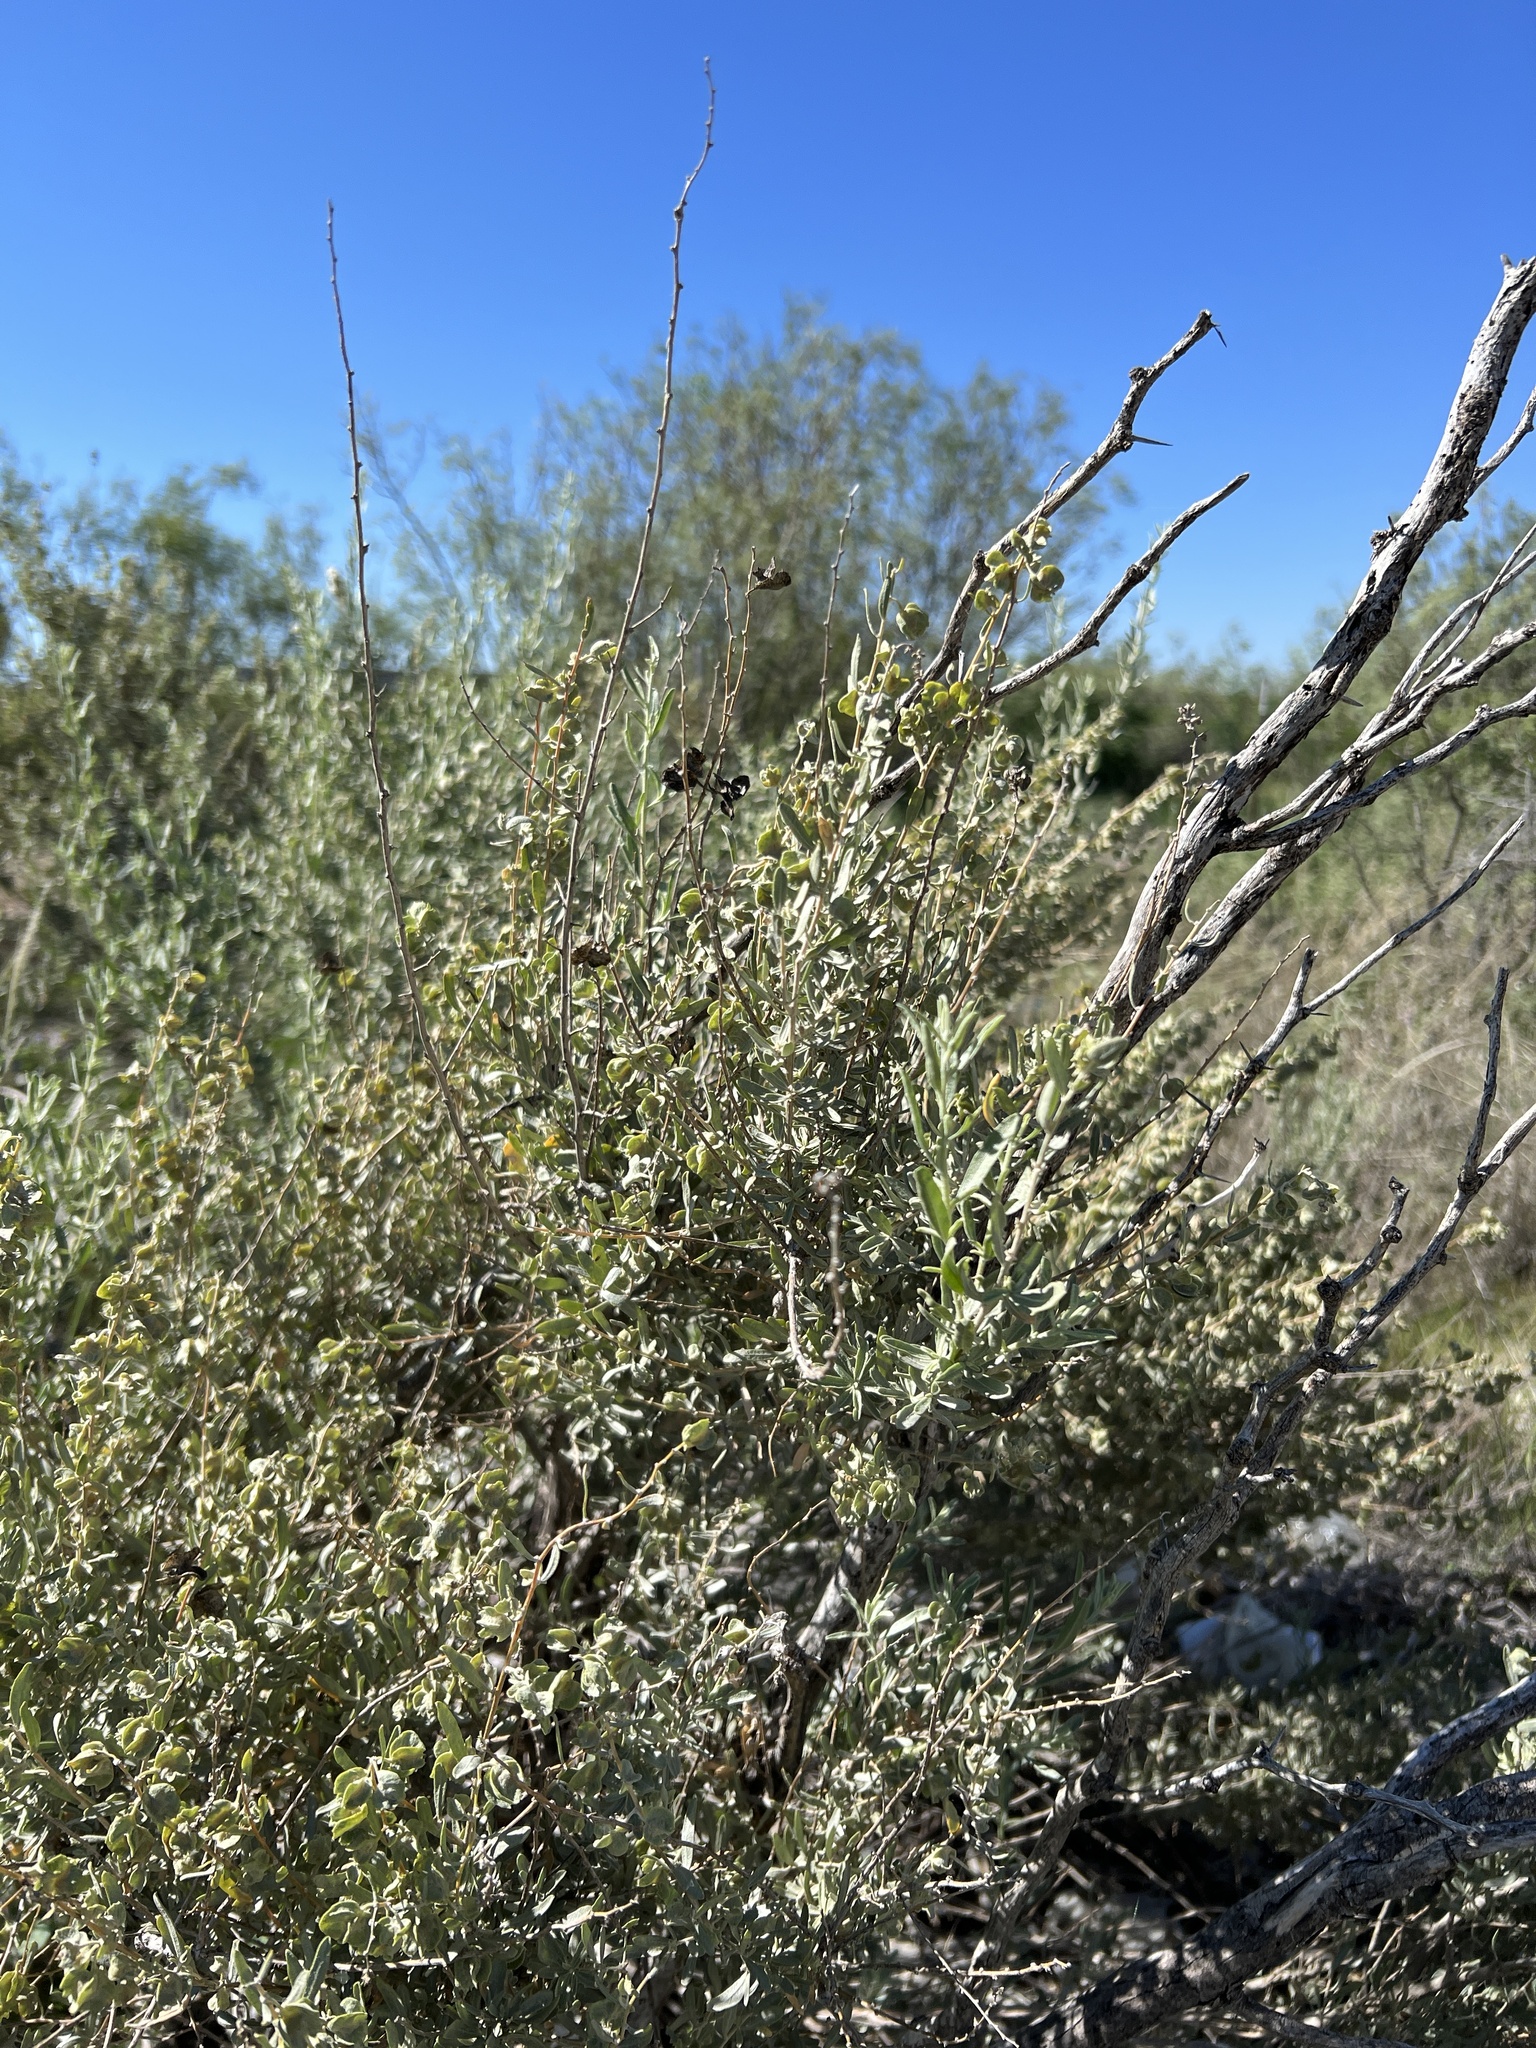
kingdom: Plantae
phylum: Tracheophyta
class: Magnoliopsida
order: Caryophyllales
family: Amaranthaceae
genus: Atriplex
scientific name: Atriplex canescens
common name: Four-wing saltbush
